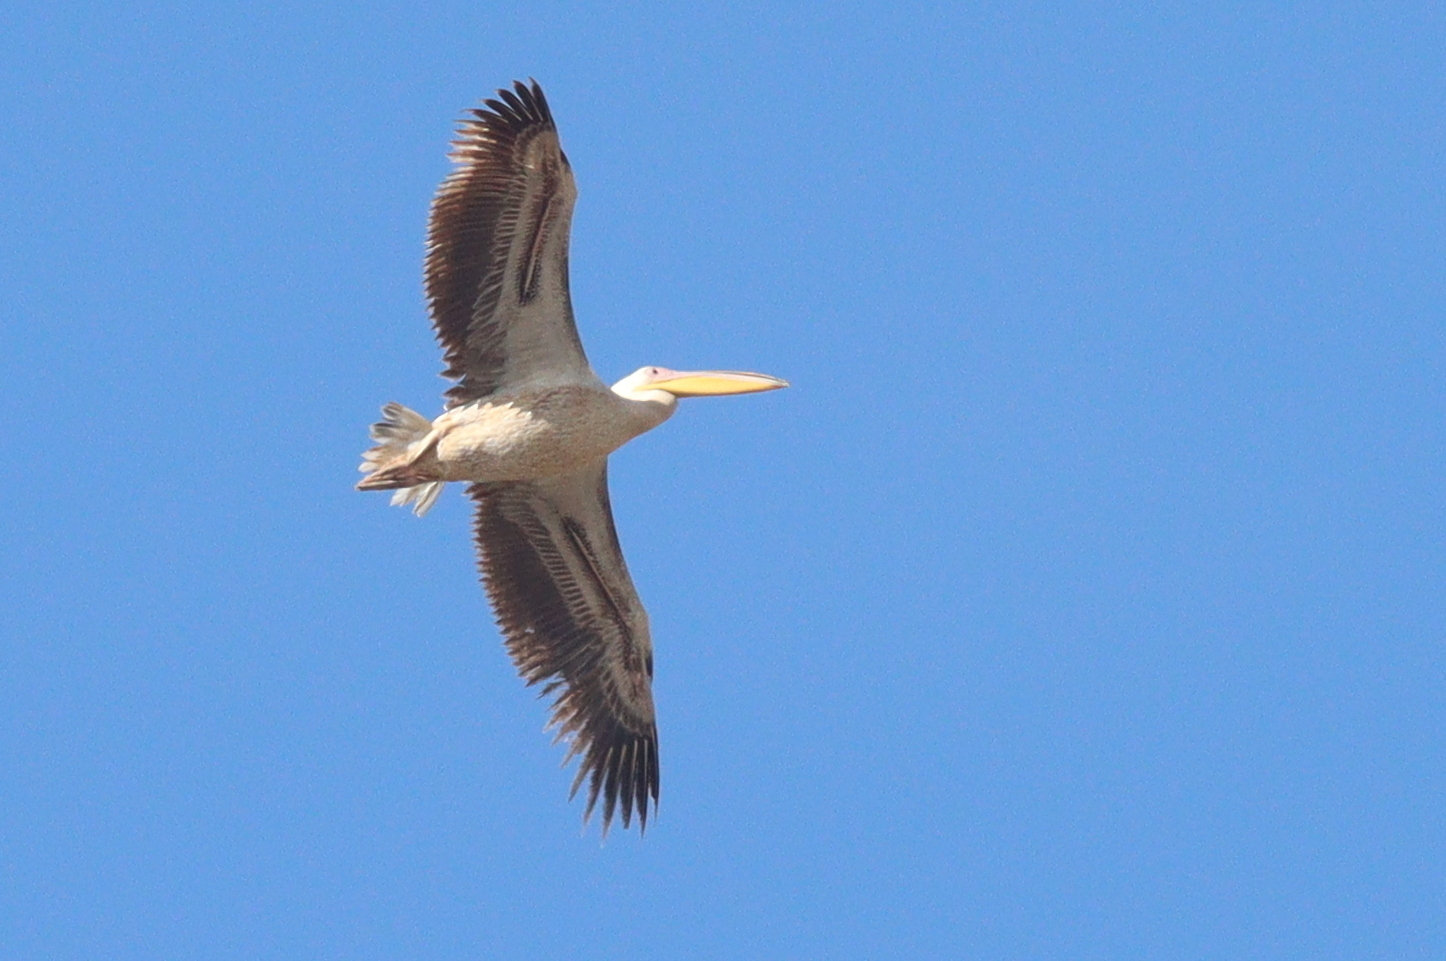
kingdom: Animalia
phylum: Chordata
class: Aves
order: Pelecaniformes
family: Pelecanidae
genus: Pelecanus
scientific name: Pelecanus onocrotalus
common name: Great white pelican
